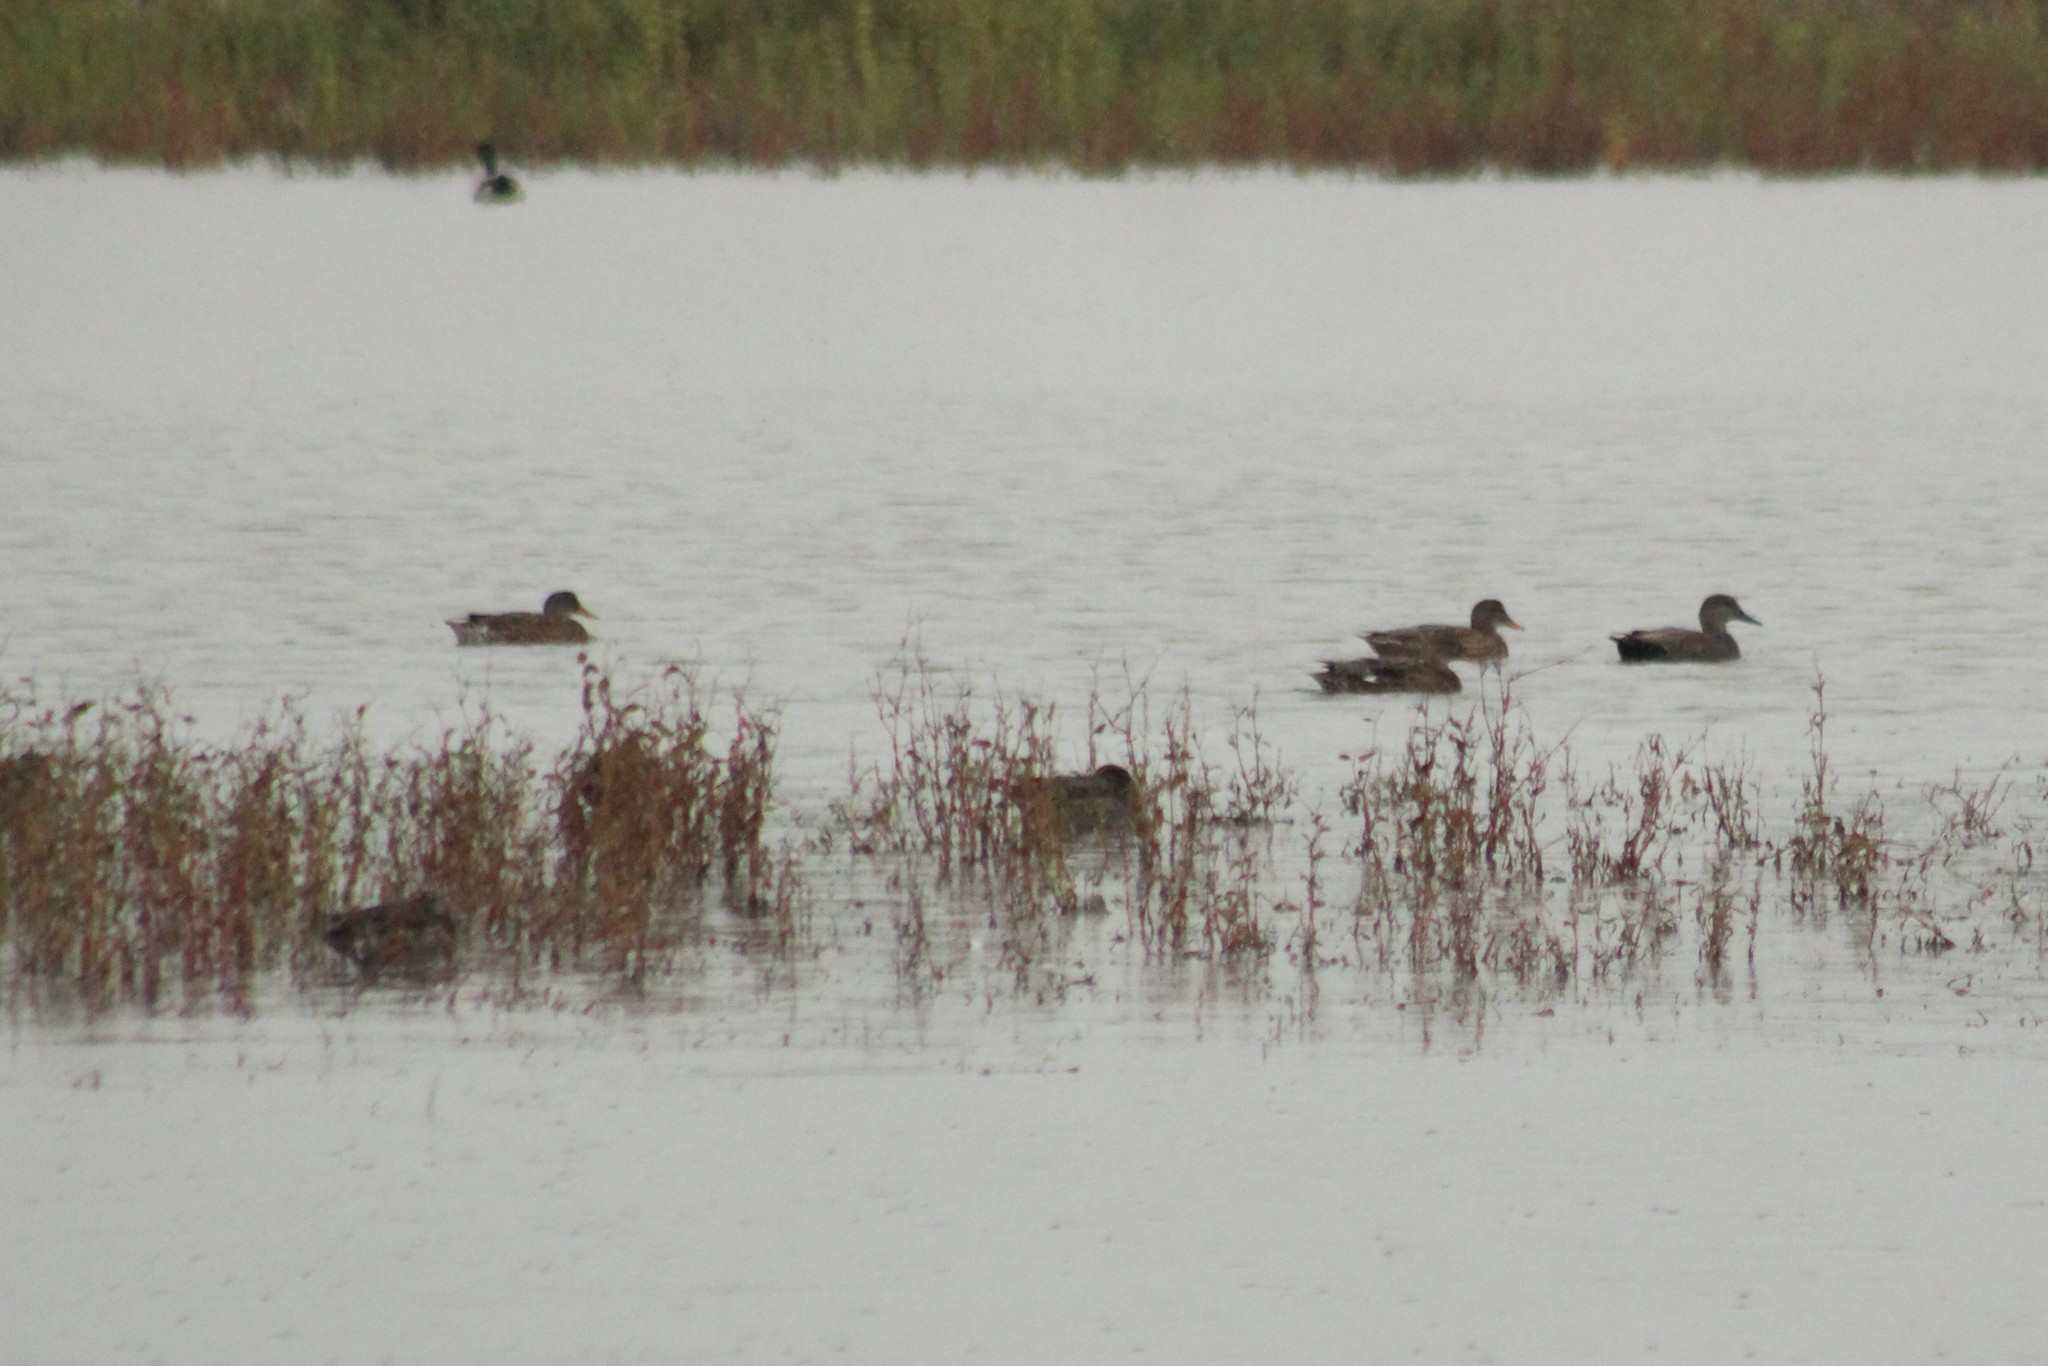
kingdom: Animalia
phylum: Chordata
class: Aves
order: Anseriformes
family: Anatidae
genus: Mareca
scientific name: Mareca strepera
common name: Gadwall
